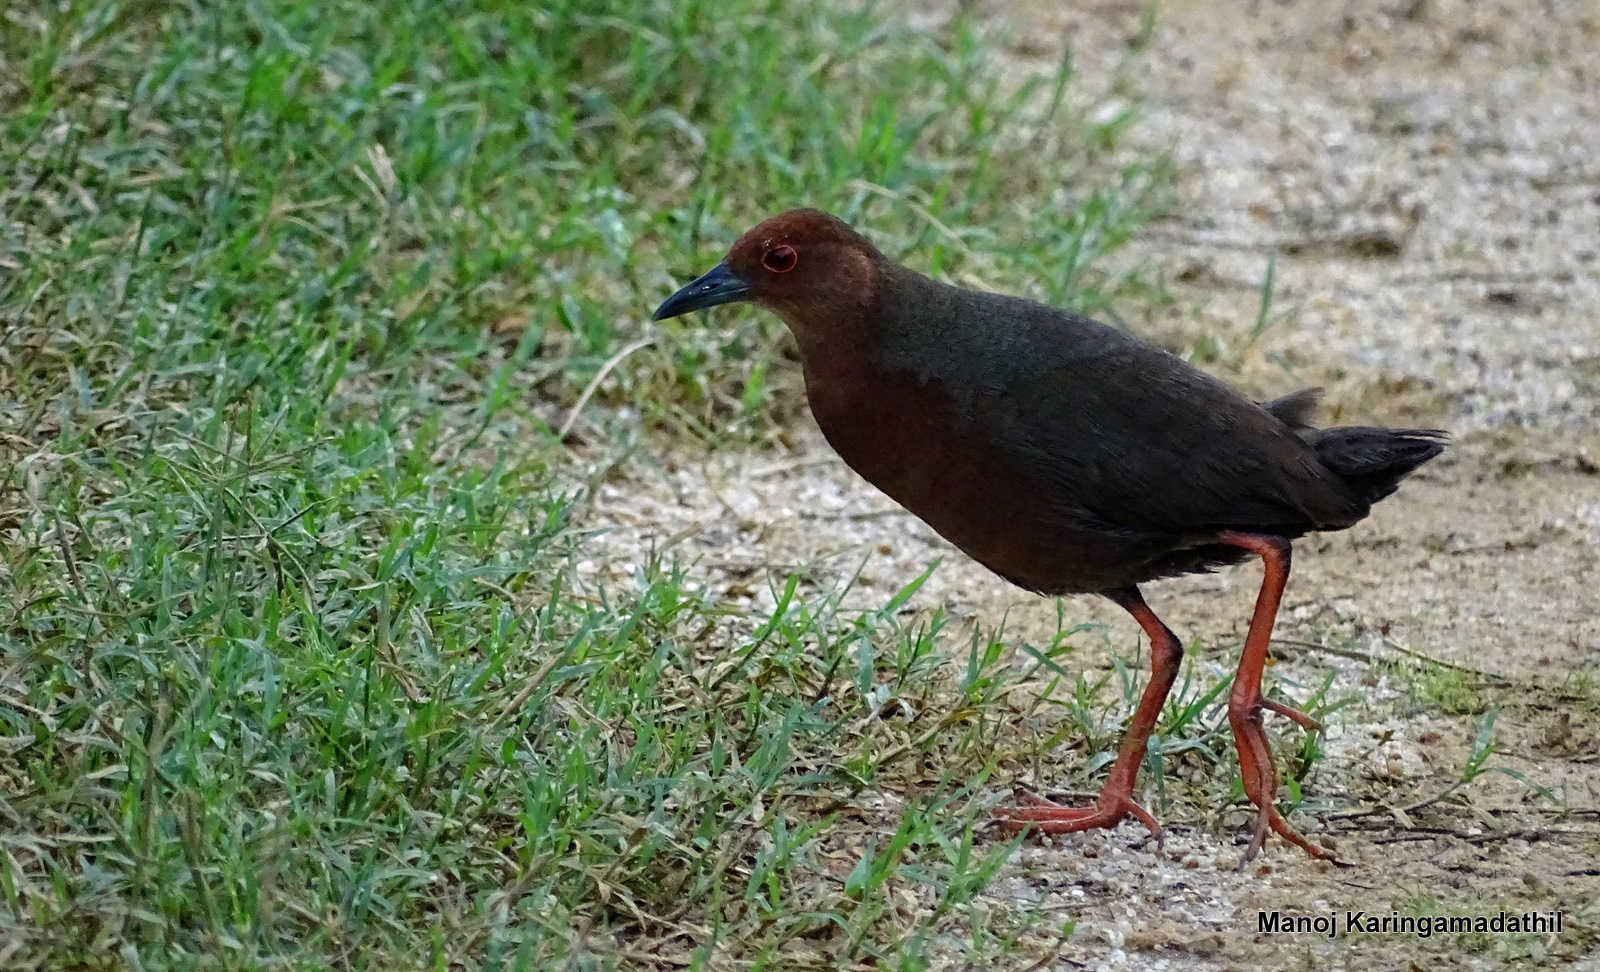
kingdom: Animalia
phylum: Chordata
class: Aves
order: Gruiformes
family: Rallidae
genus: Porzana
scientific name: Porzana fusca
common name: Ruddy-breasted crake
